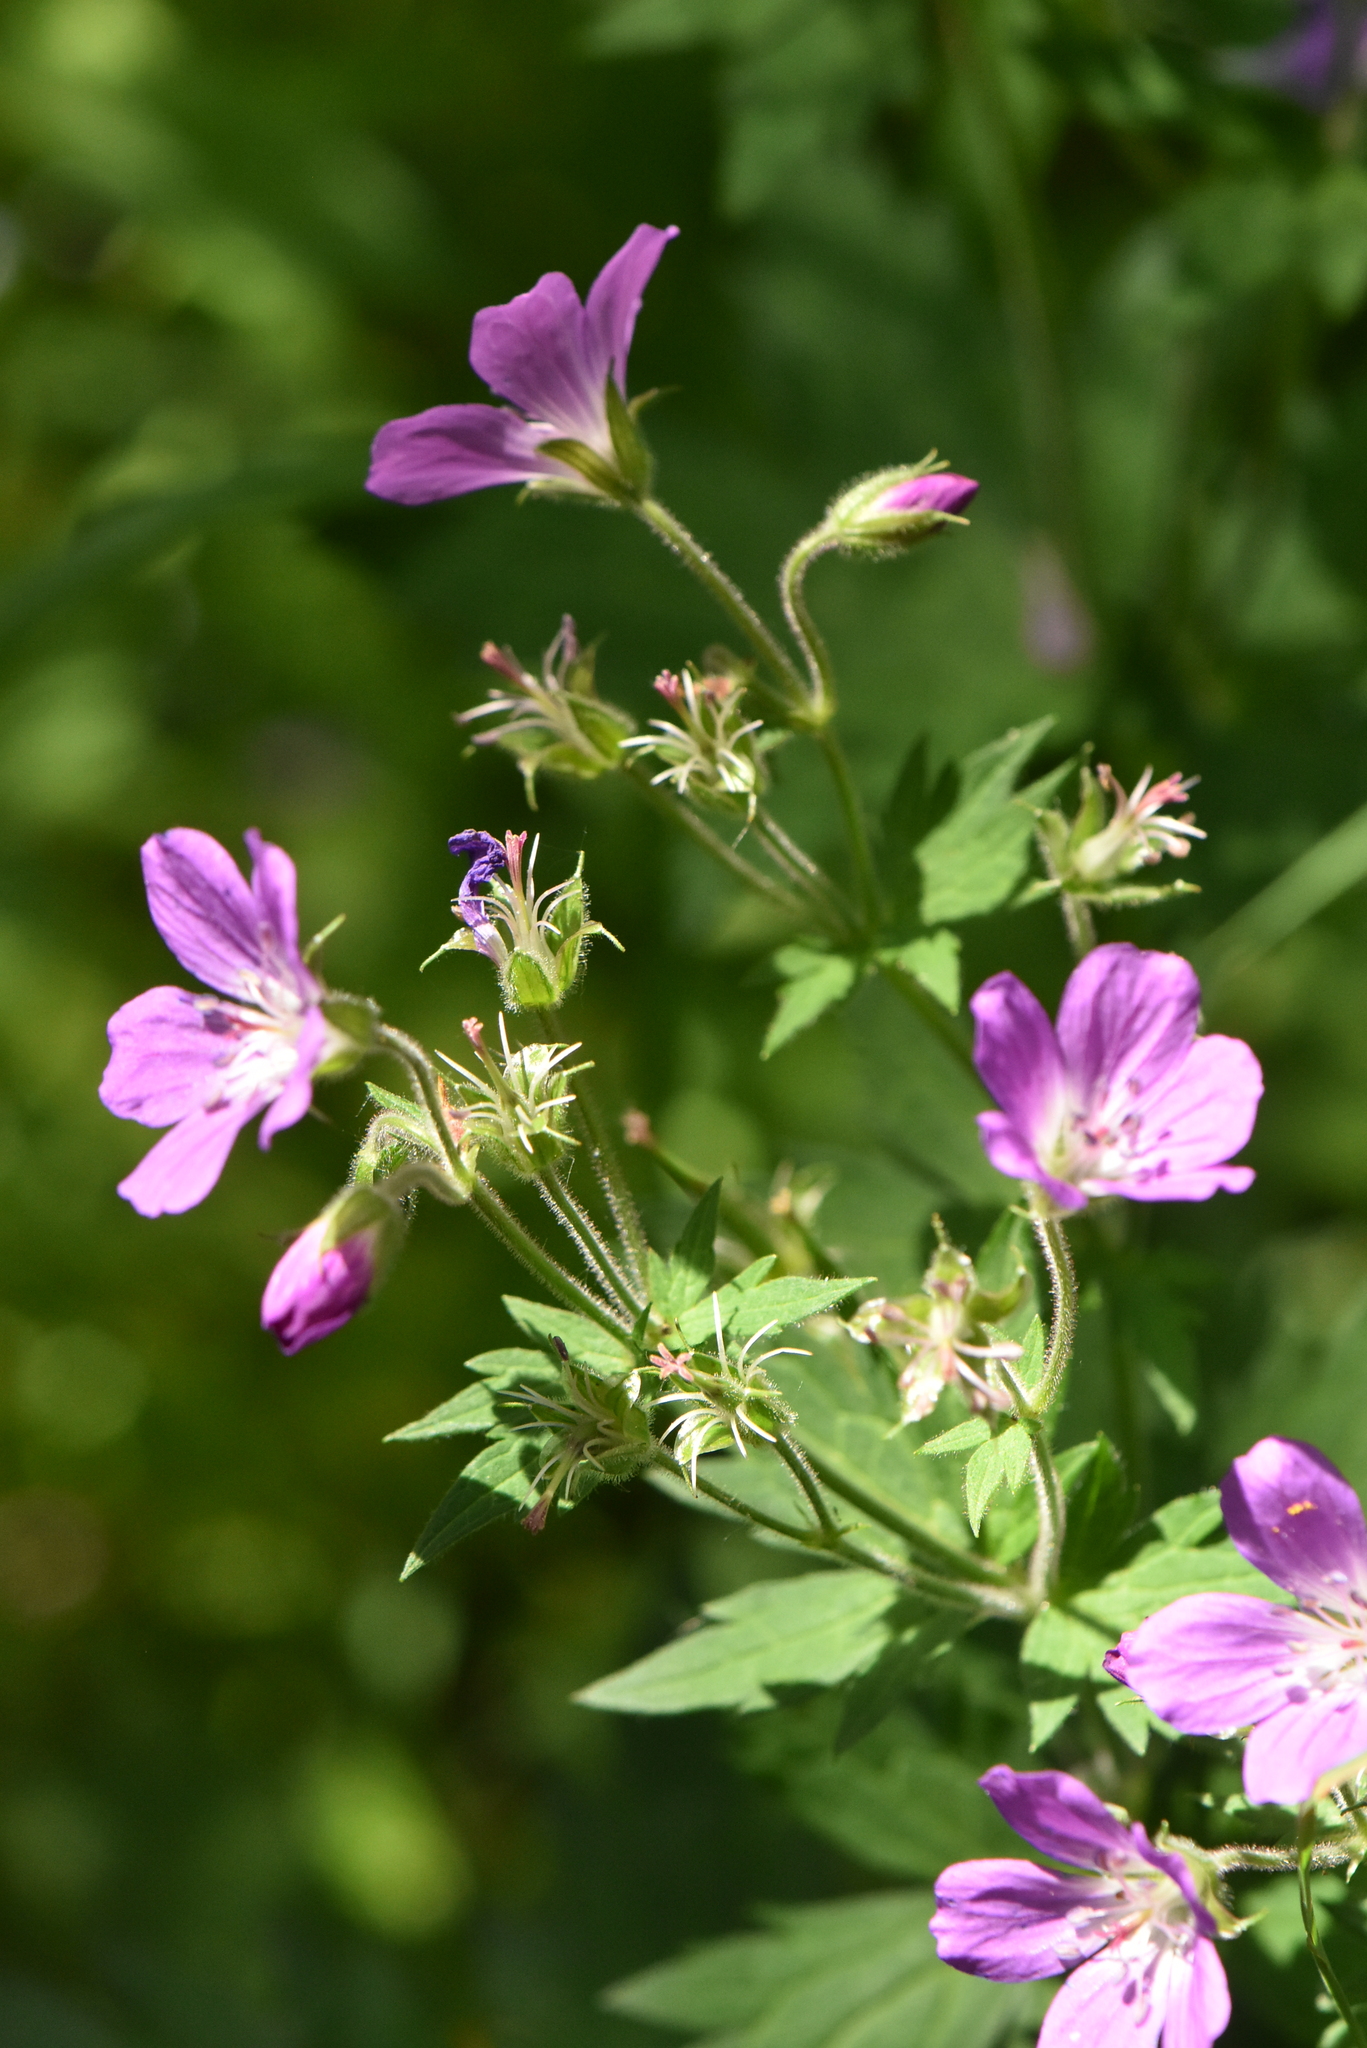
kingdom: Plantae
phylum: Tracheophyta
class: Magnoliopsida
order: Geraniales
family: Geraniaceae
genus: Geranium
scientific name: Geranium sylvaticum
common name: Wood crane's-bill
